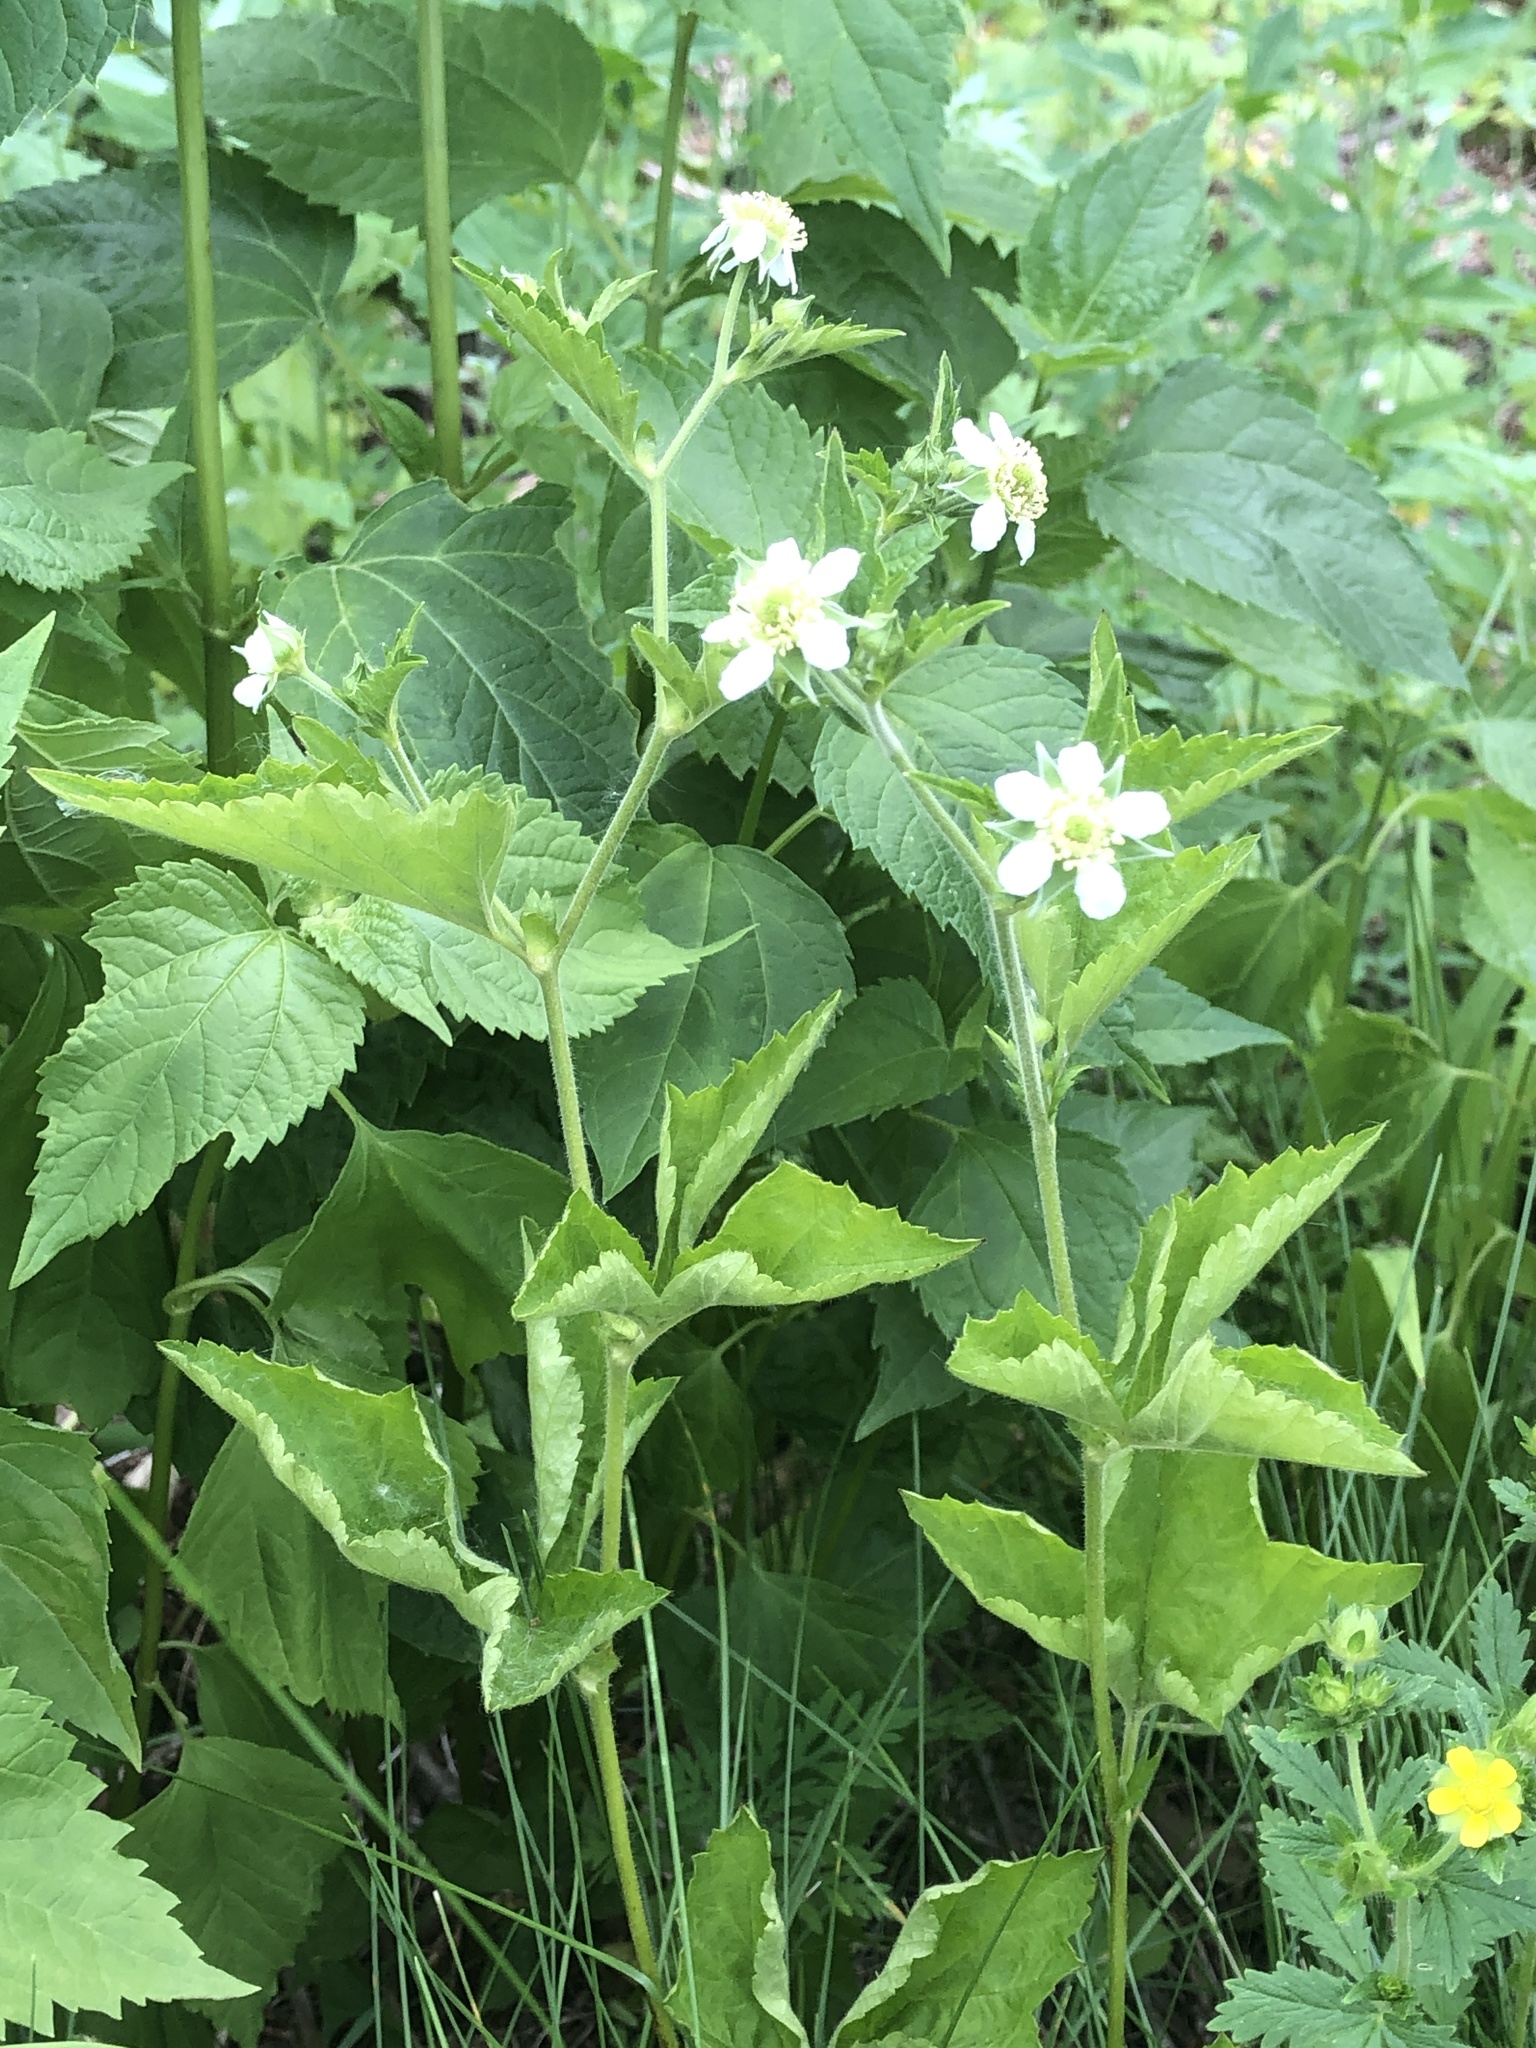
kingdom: Plantae
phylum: Tracheophyta
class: Magnoliopsida
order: Rosales
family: Rosaceae
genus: Geum
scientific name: Geum canadense
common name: White avens
